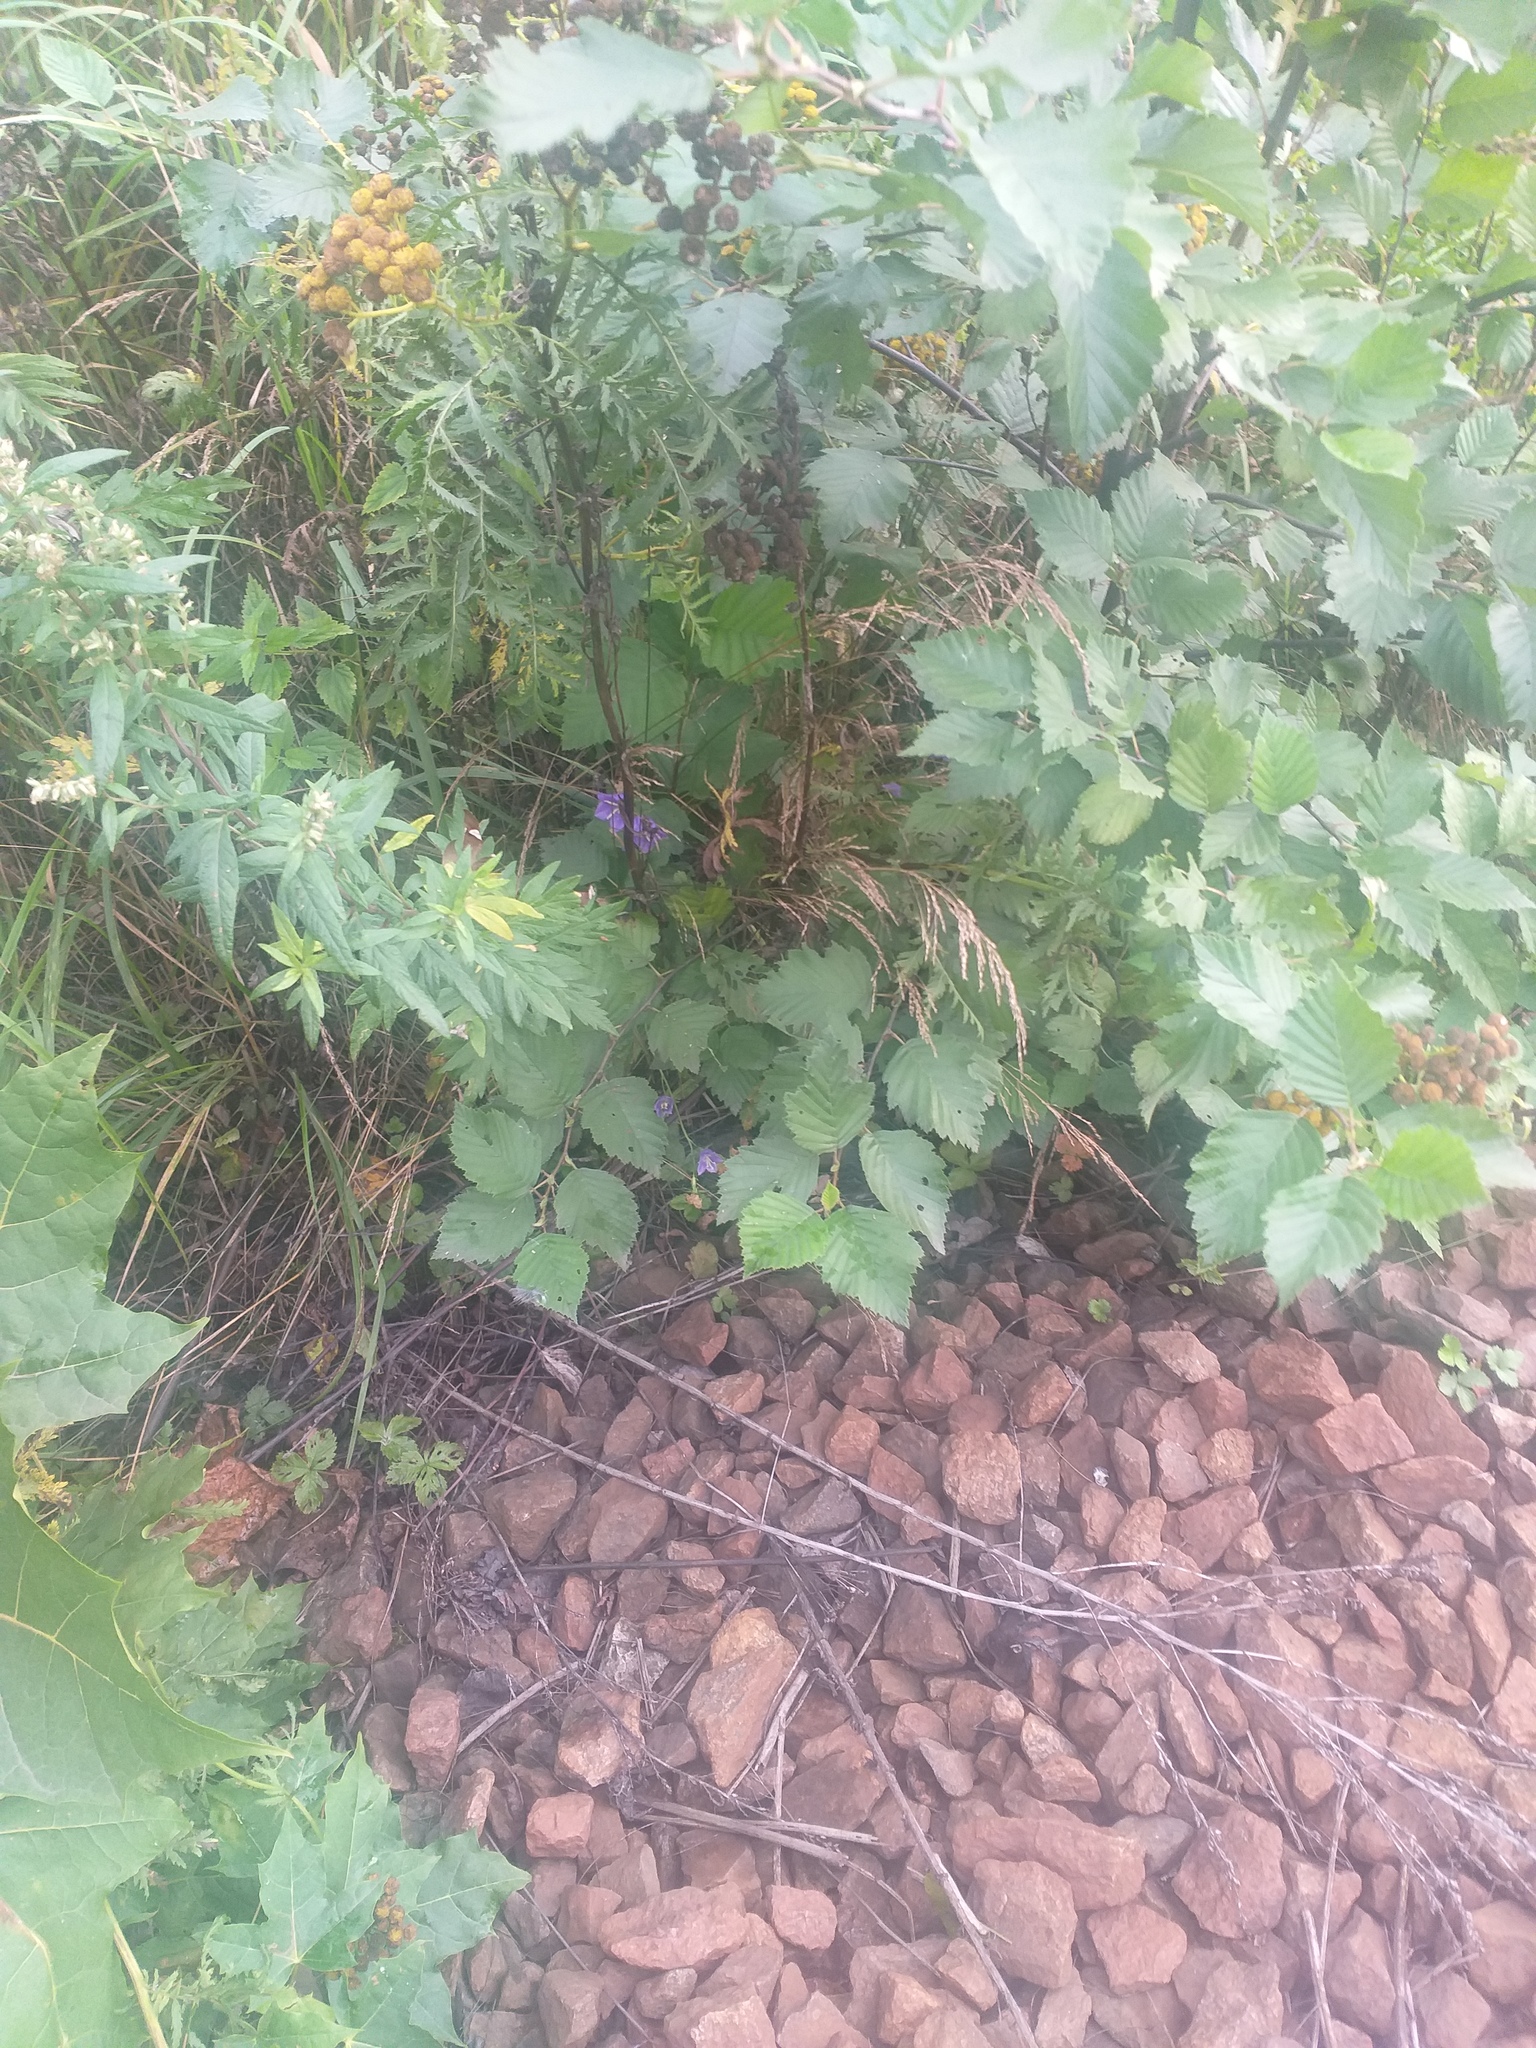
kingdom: Plantae
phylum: Tracheophyta
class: Magnoliopsida
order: Fagales
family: Betulaceae
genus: Alnus
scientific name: Alnus incana
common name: Grey alder
